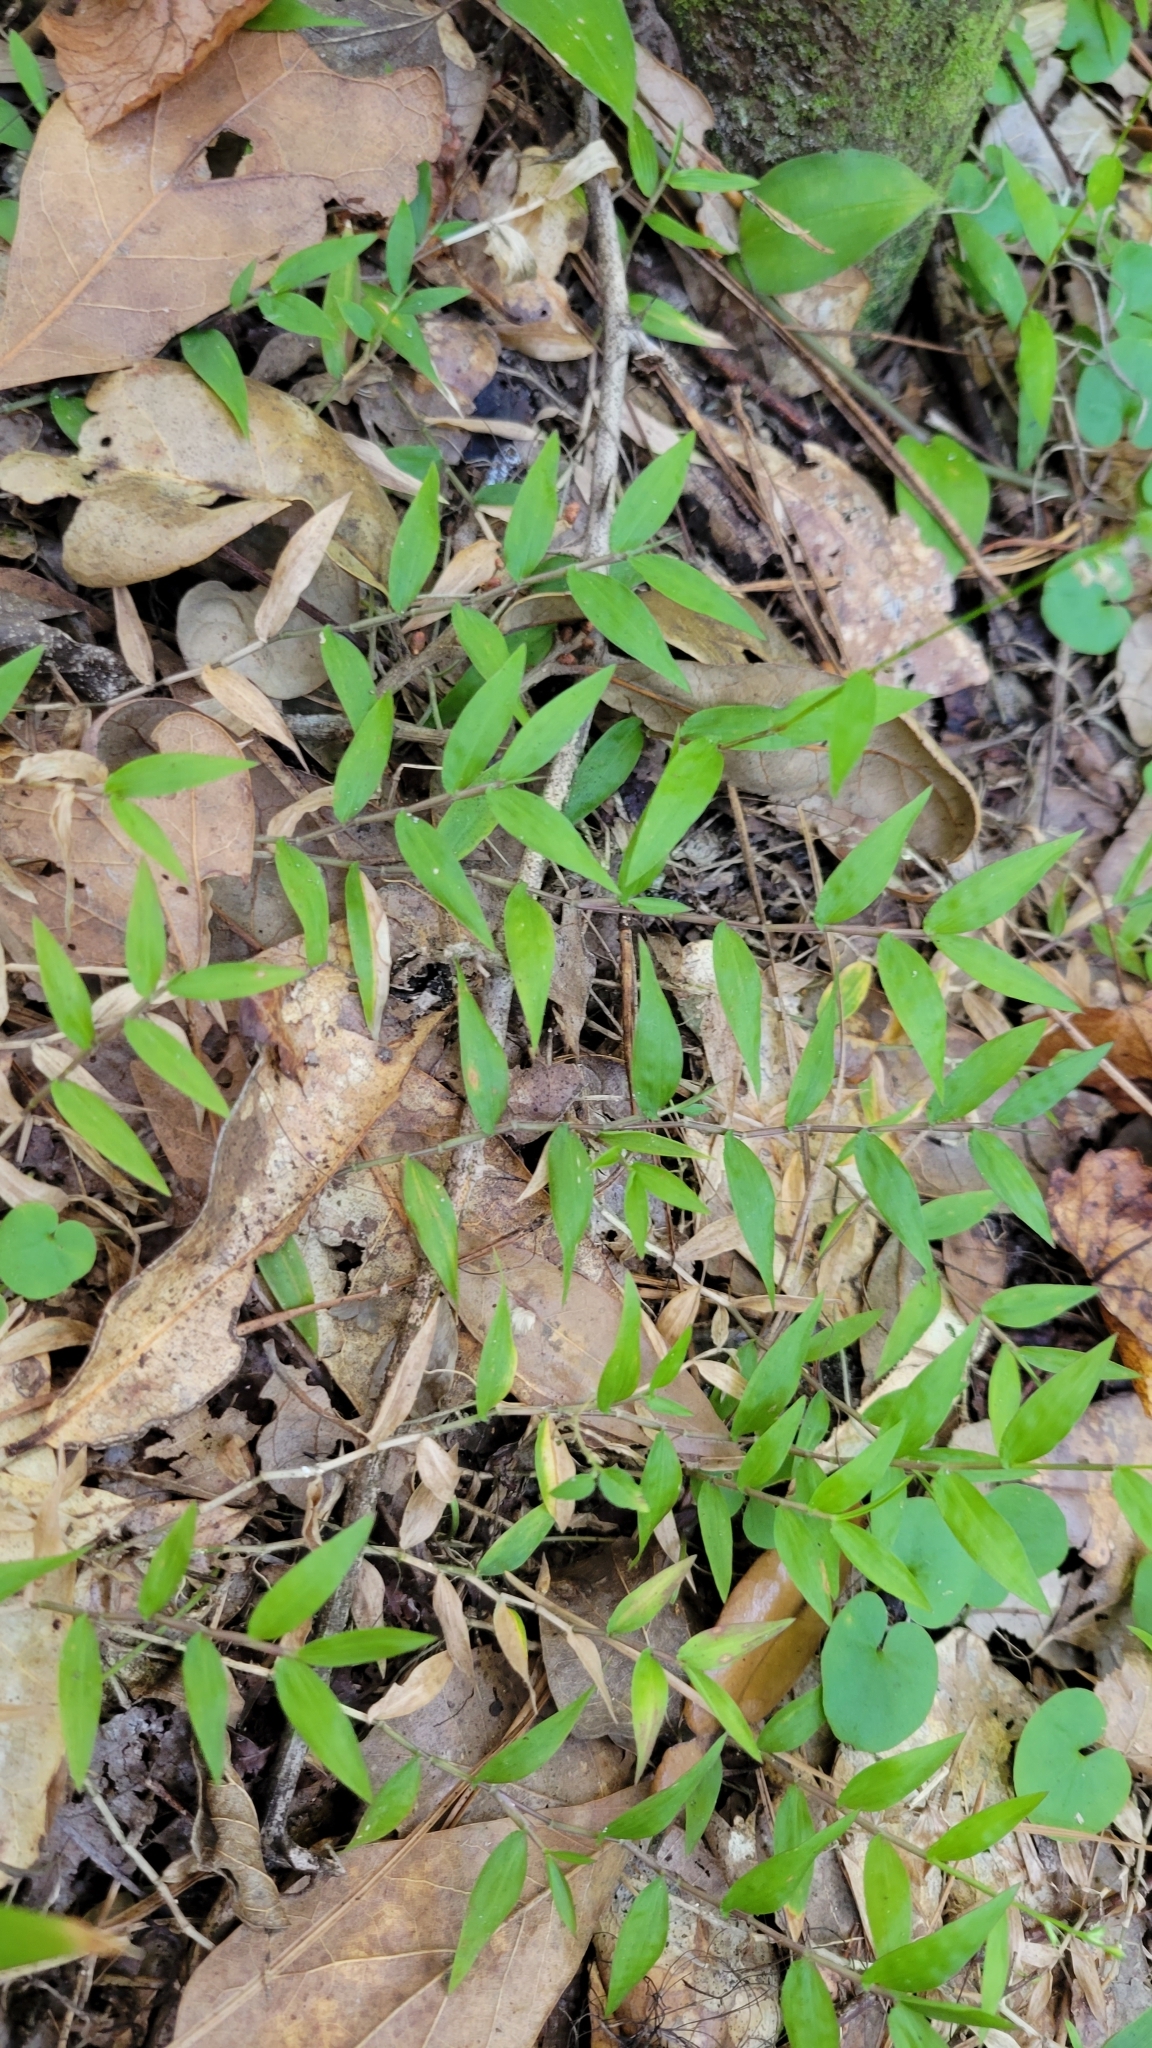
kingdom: Plantae
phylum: Tracheophyta
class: Liliopsida
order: Poales
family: Poaceae
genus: Oplismenus
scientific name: Oplismenus compositus
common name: Running mountain grass
